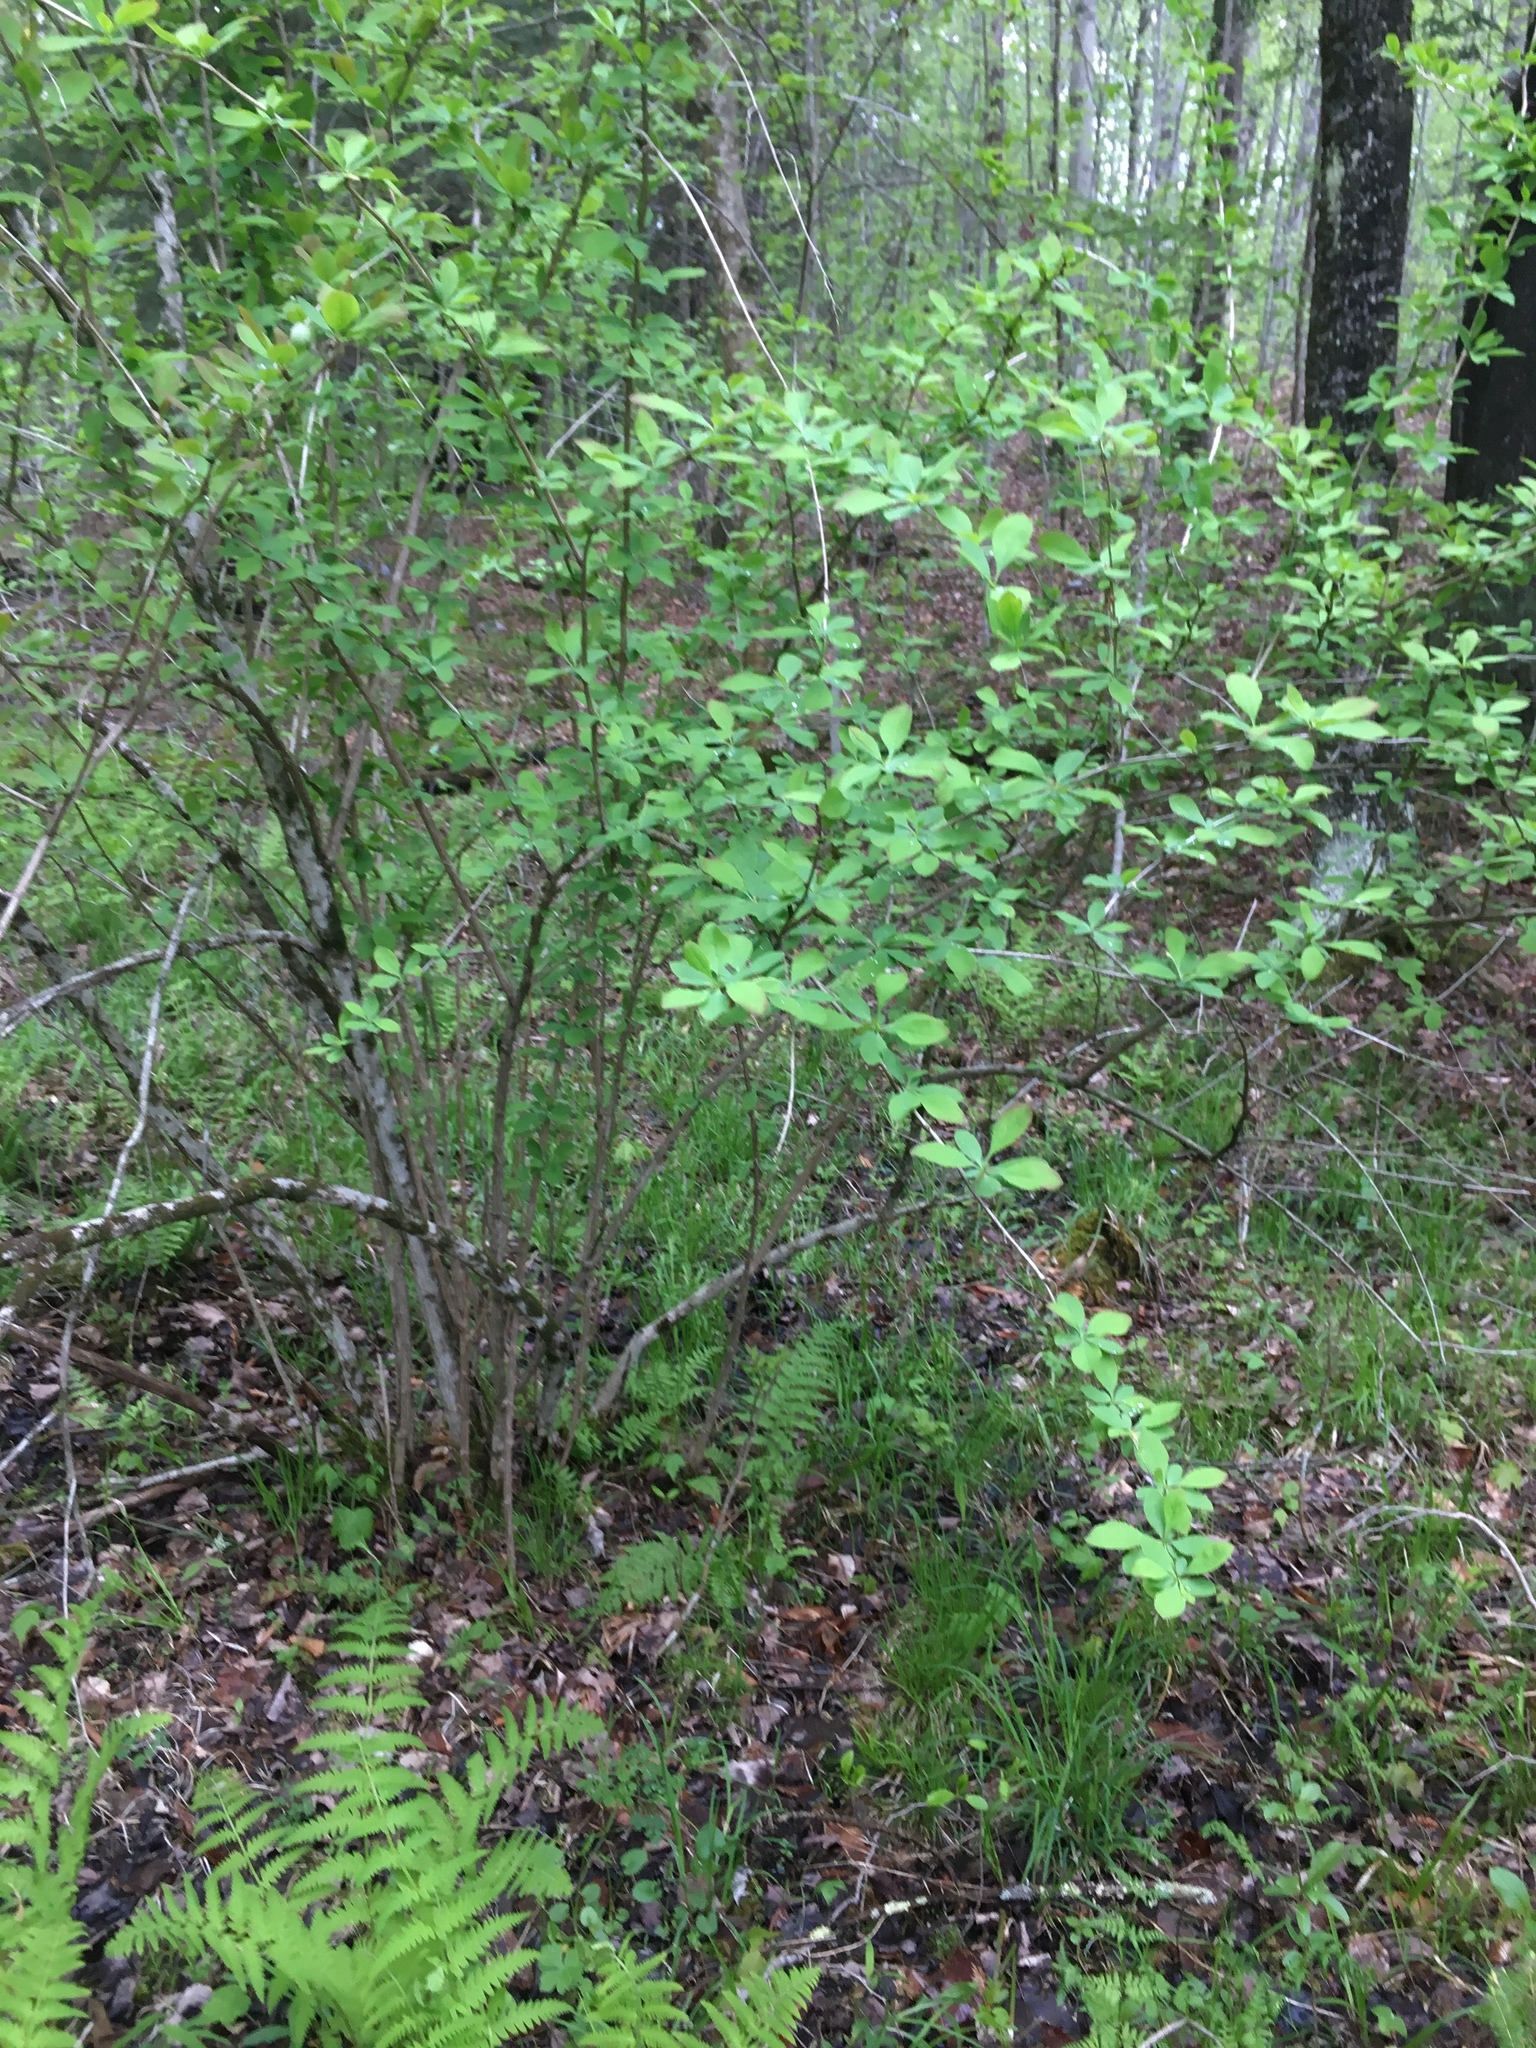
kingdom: Plantae
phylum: Tracheophyta
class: Magnoliopsida
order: Ranunculales
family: Berberidaceae
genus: Berberis
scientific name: Berberis vulgaris
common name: Barberry
